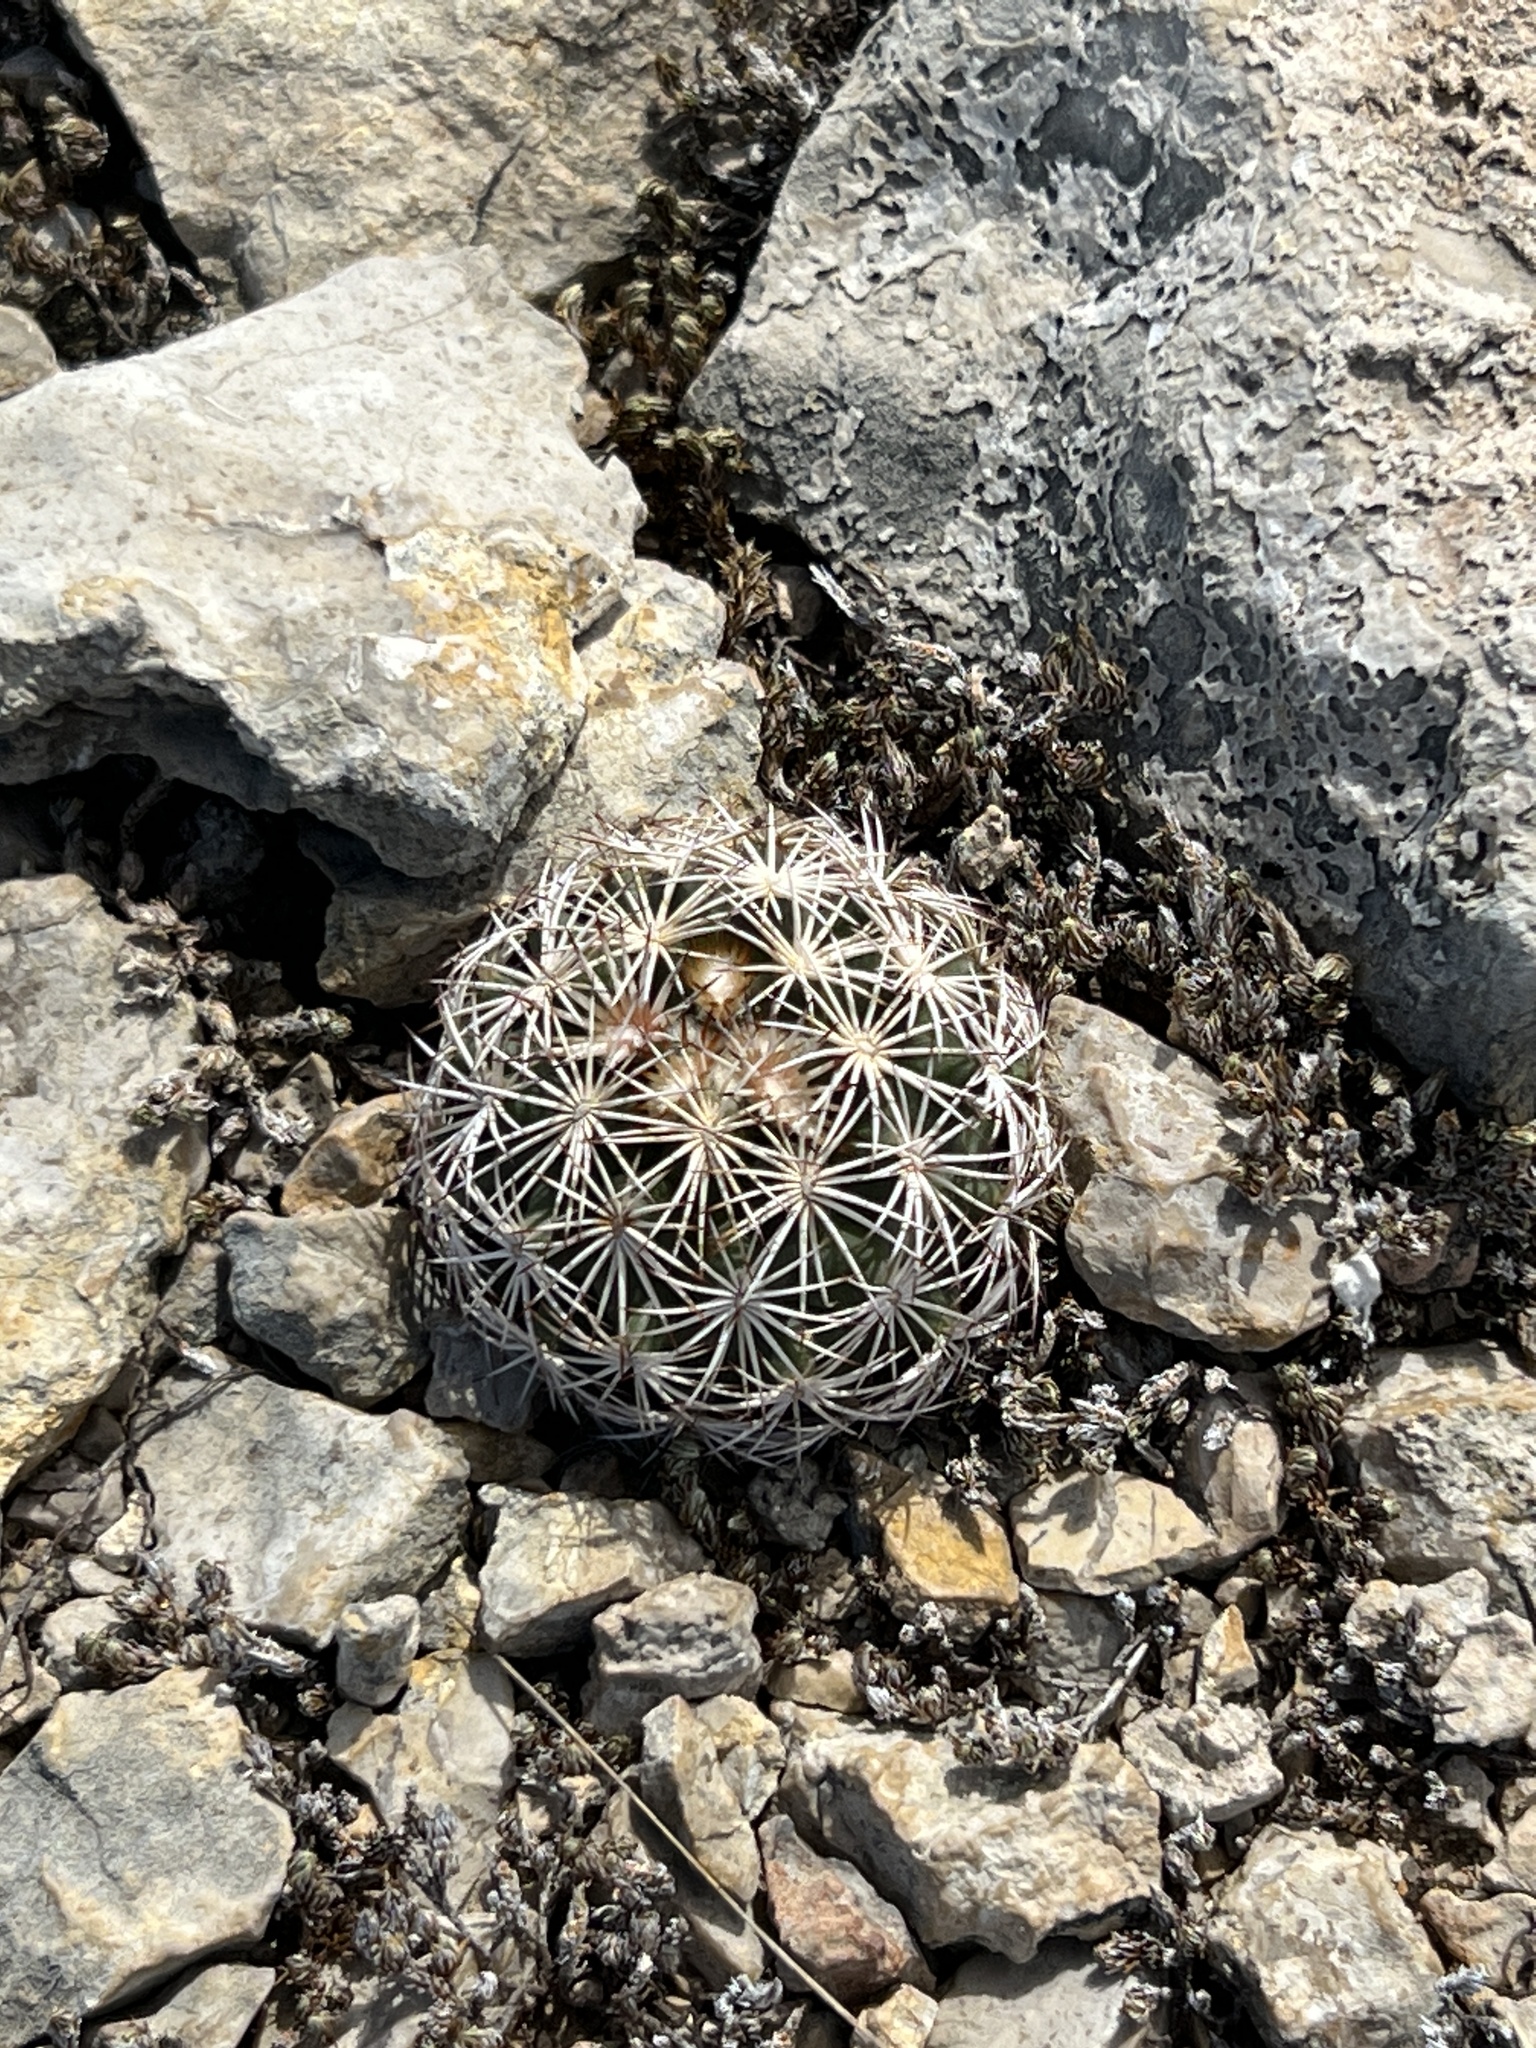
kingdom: Plantae
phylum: Tracheophyta
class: Magnoliopsida
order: Caryophyllales
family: Cactaceae
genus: Coryphantha
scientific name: Coryphantha echinus
